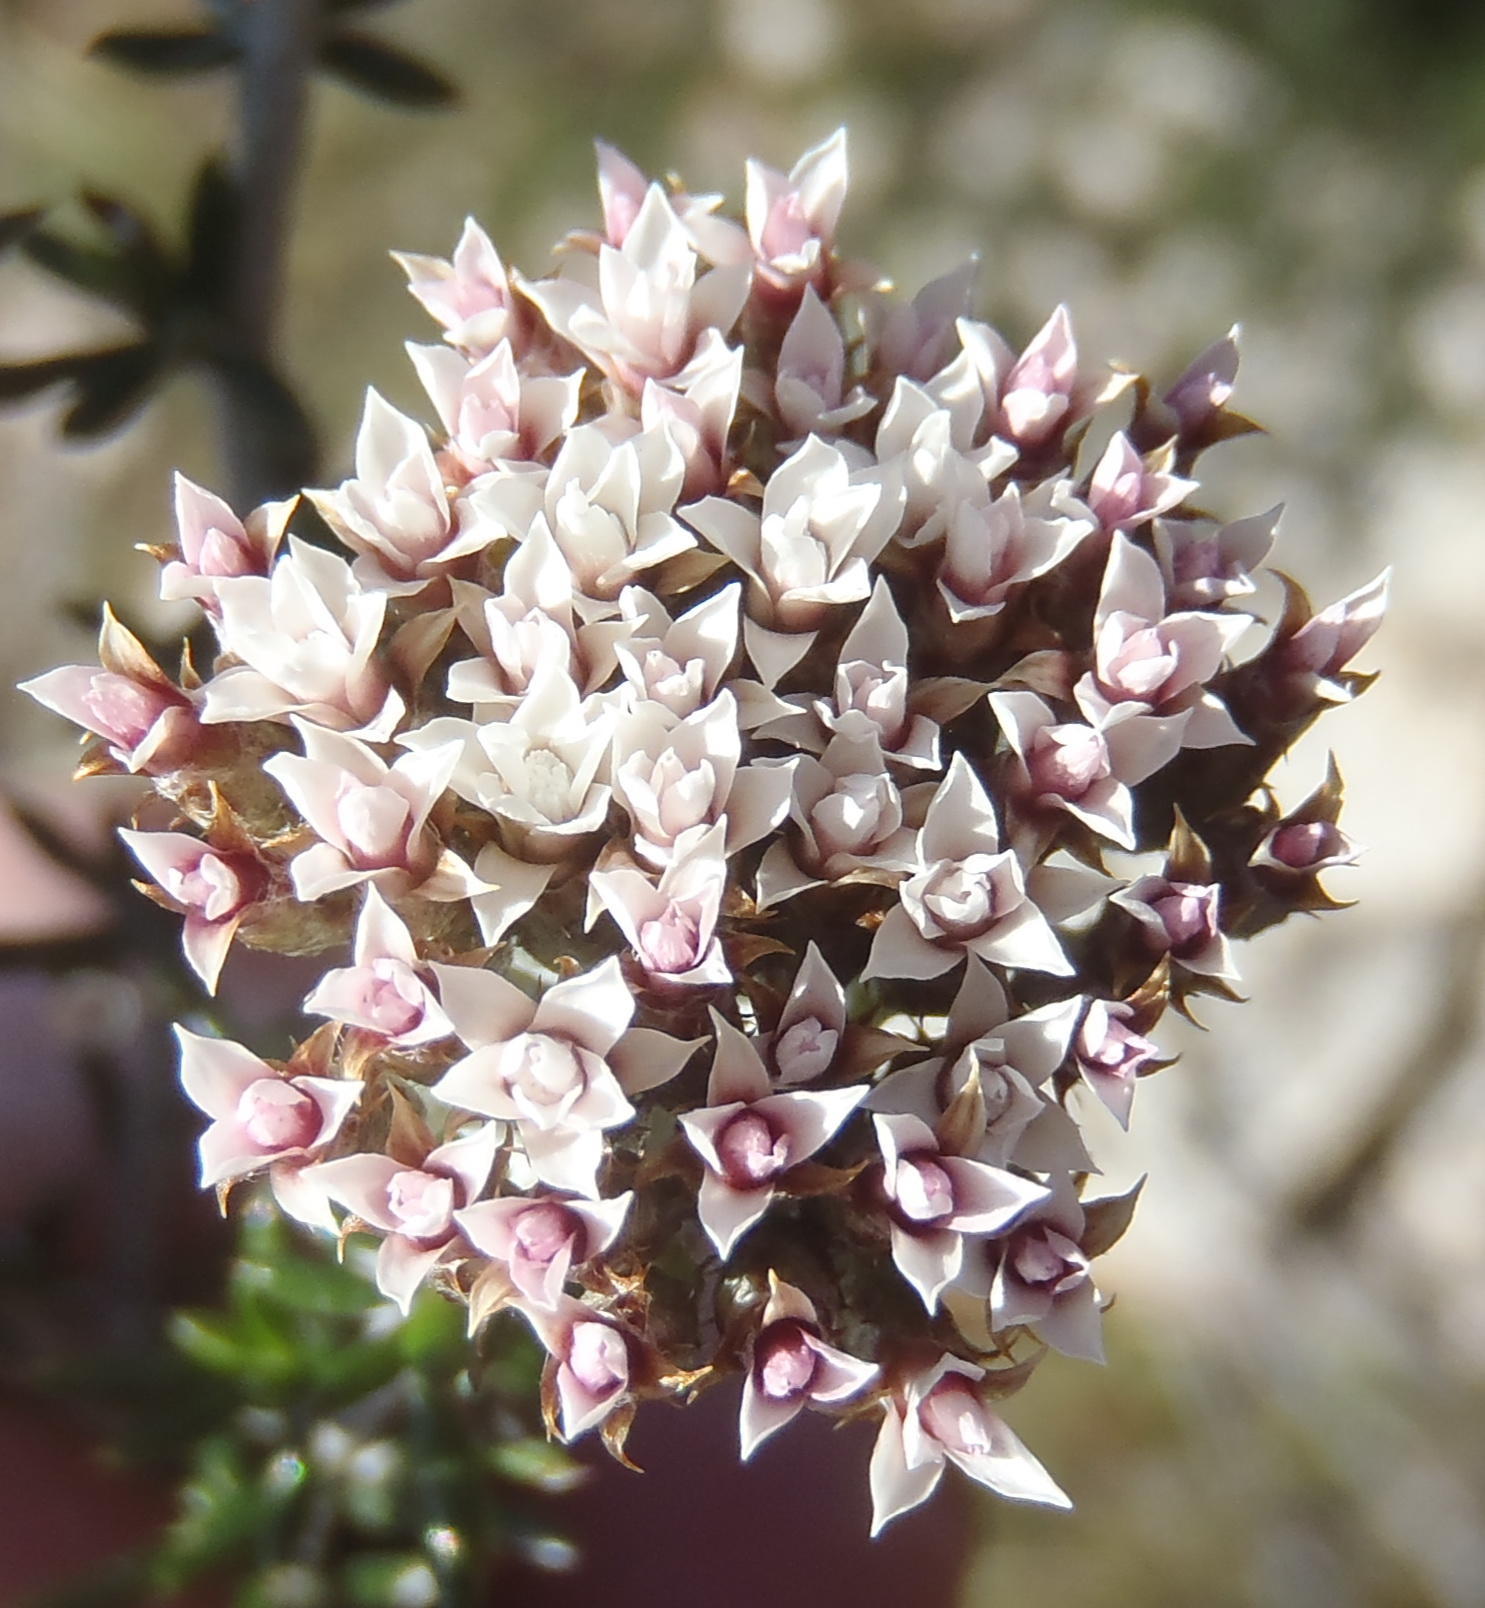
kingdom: Plantae
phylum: Tracheophyta
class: Magnoliopsida
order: Asterales
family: Asteraceae
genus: Metalasia
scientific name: Metalasia massonii
